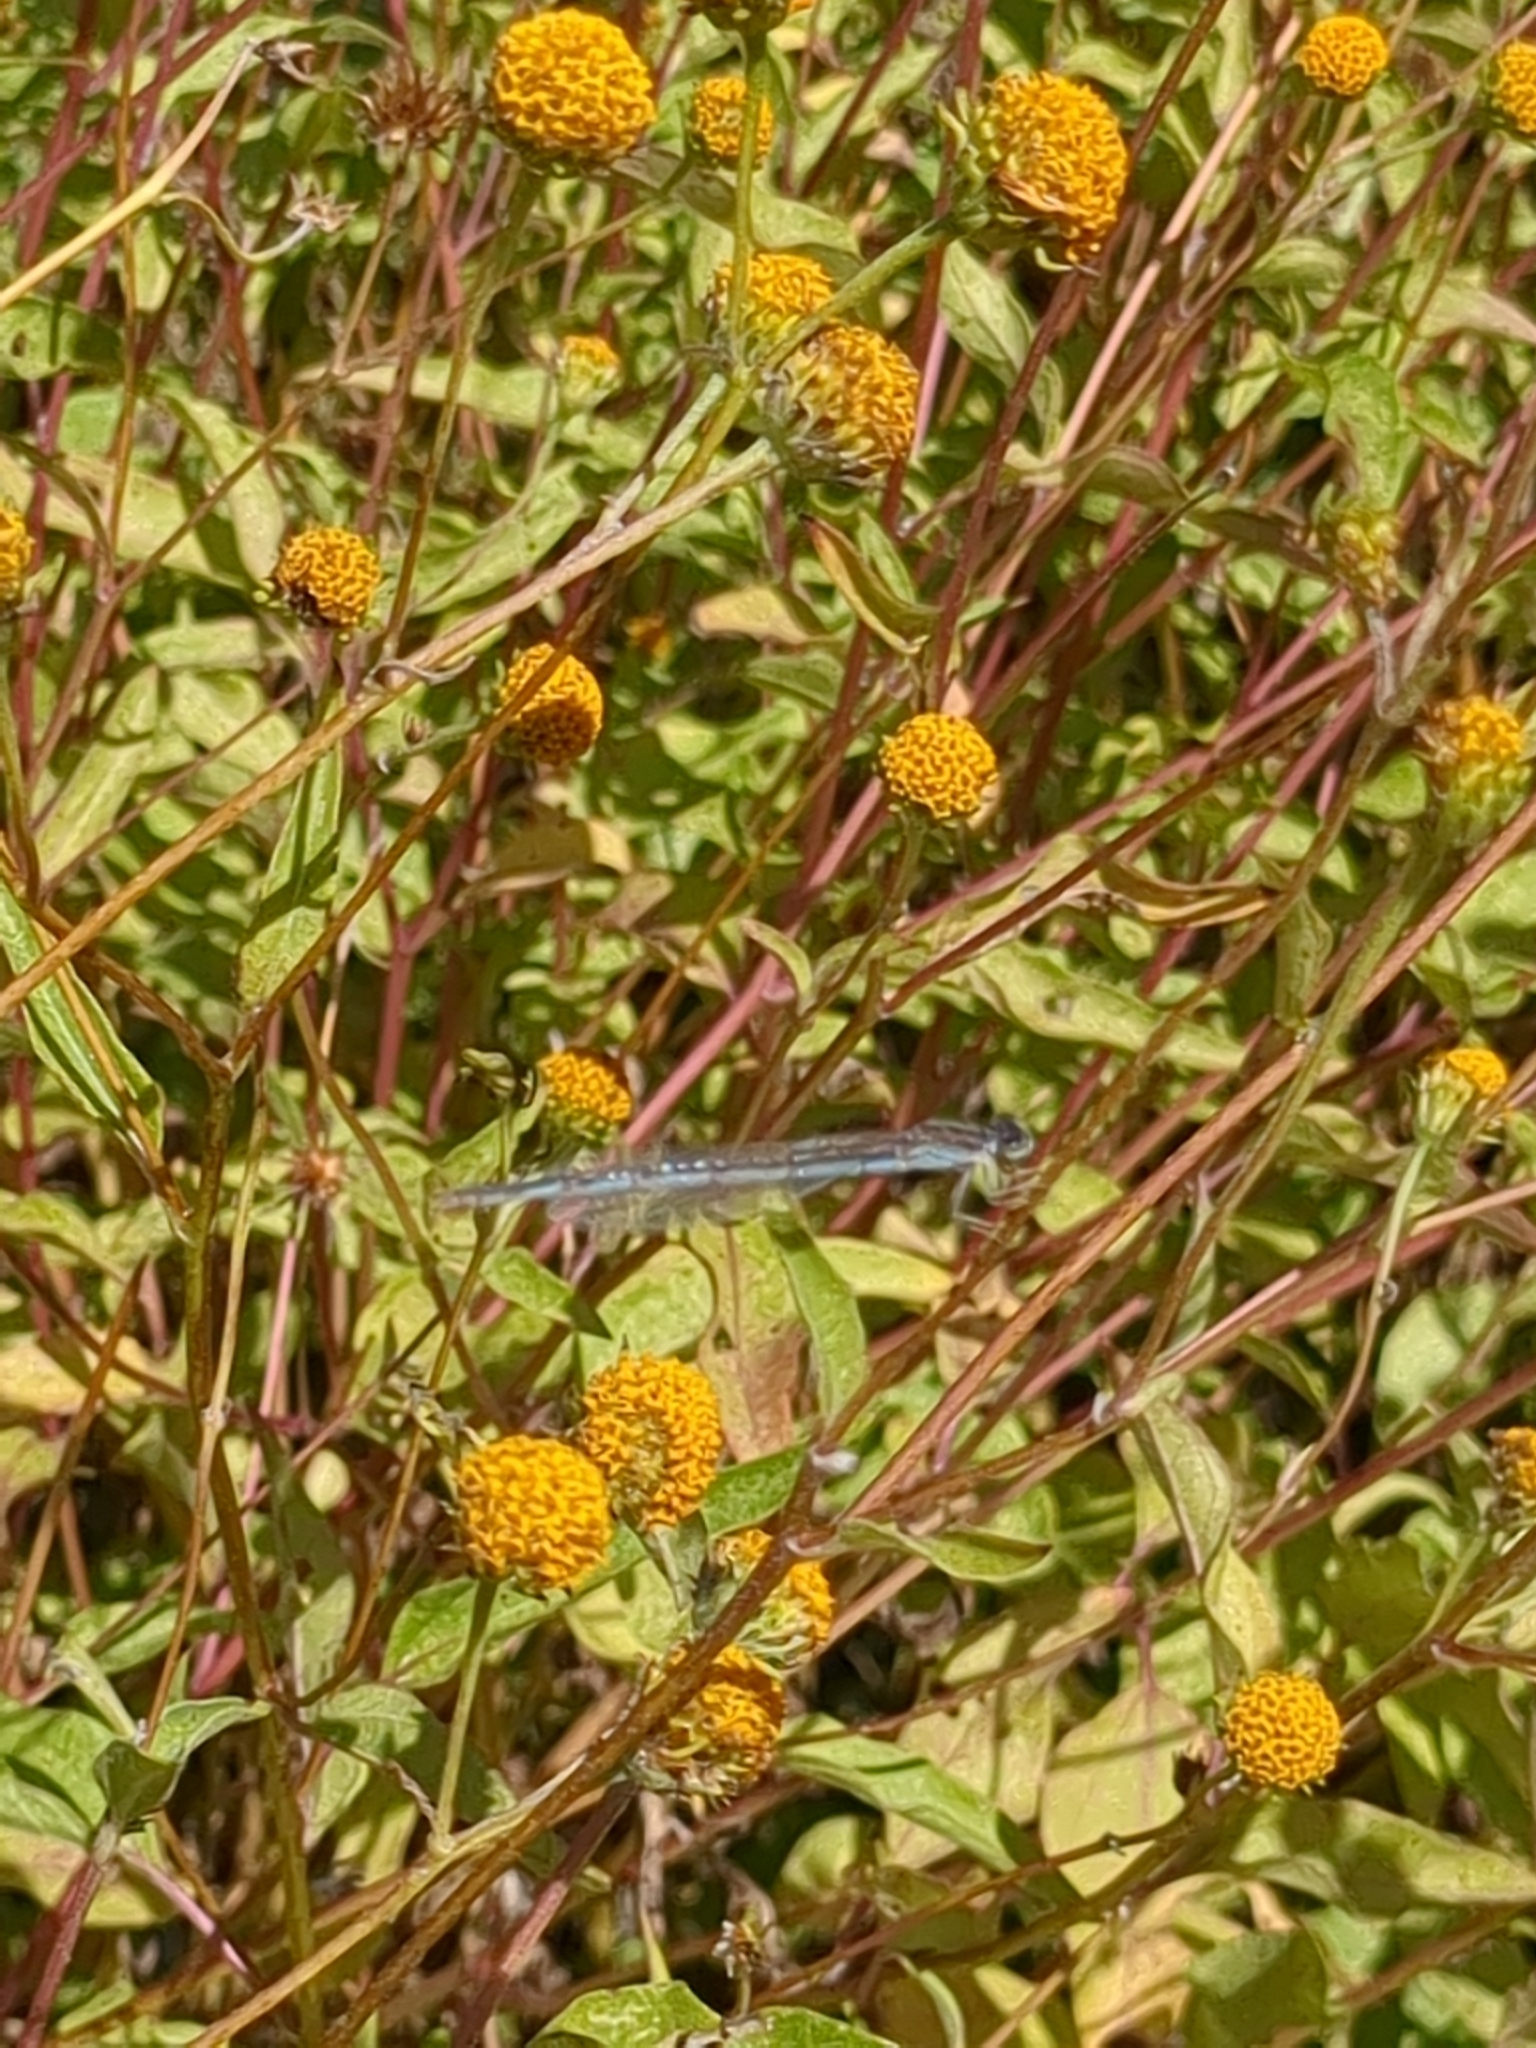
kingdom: Animalia
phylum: Arthropoda
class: Insecta
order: Odonata
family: Coenagrionidae
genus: Enallagma
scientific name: Enallagma civile
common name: Damselfly
